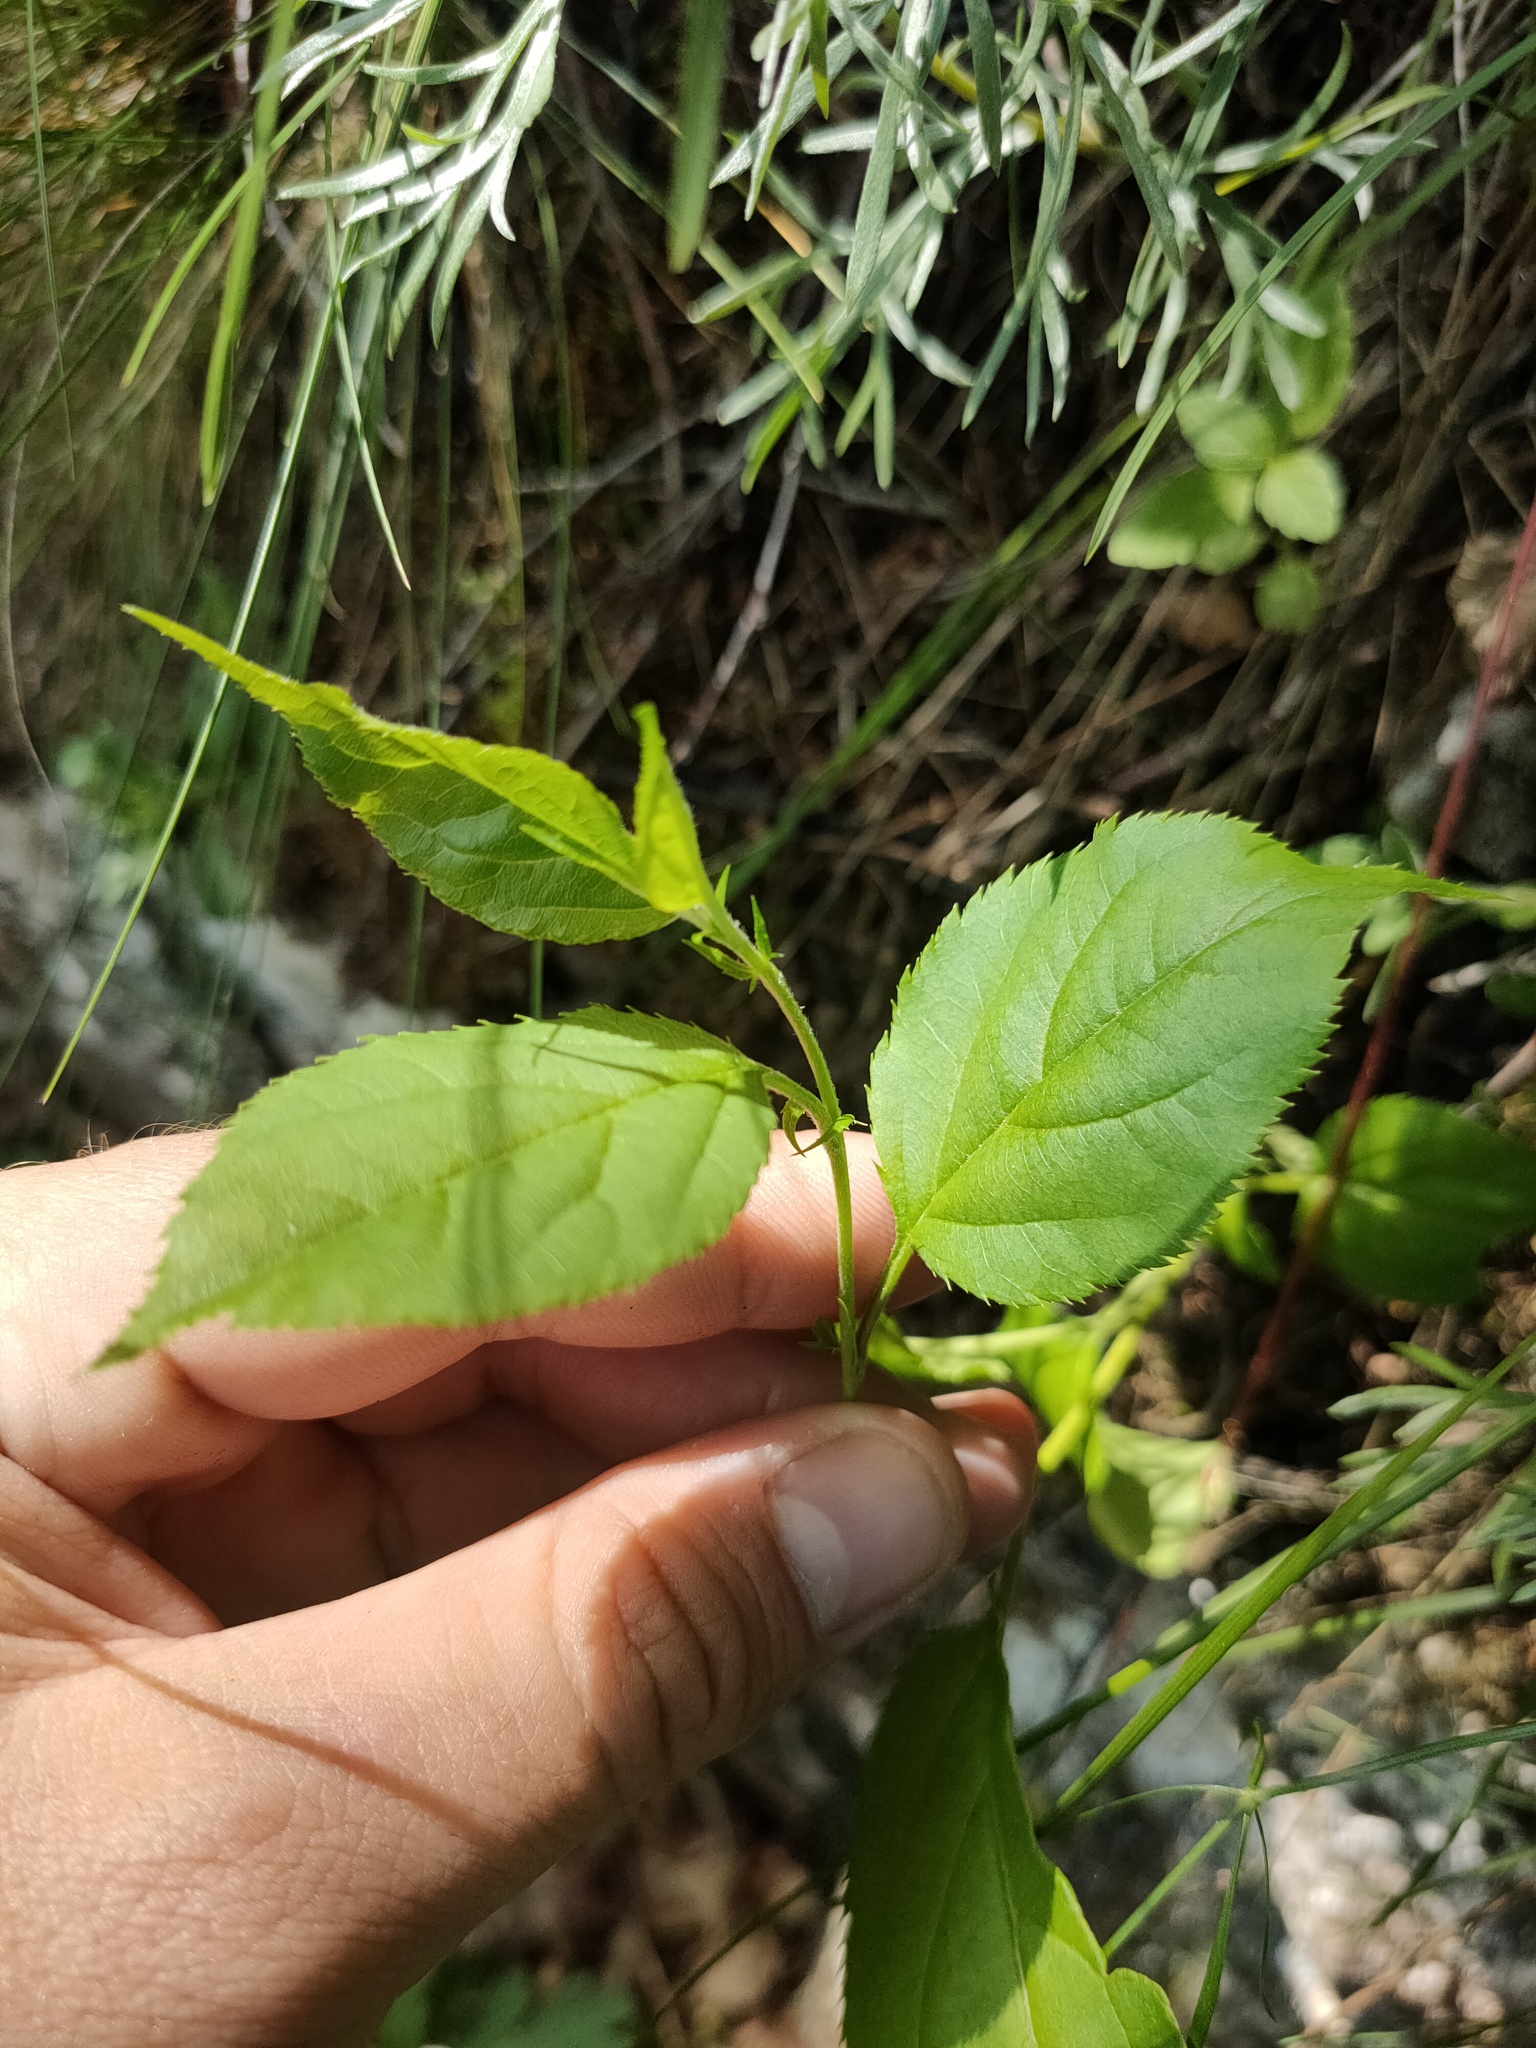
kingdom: Plantae
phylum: Tracheophyta
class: Magnoliopsida
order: Rosales
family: Rosaceae
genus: Malus
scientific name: Malus baccata
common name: Siberian crab
